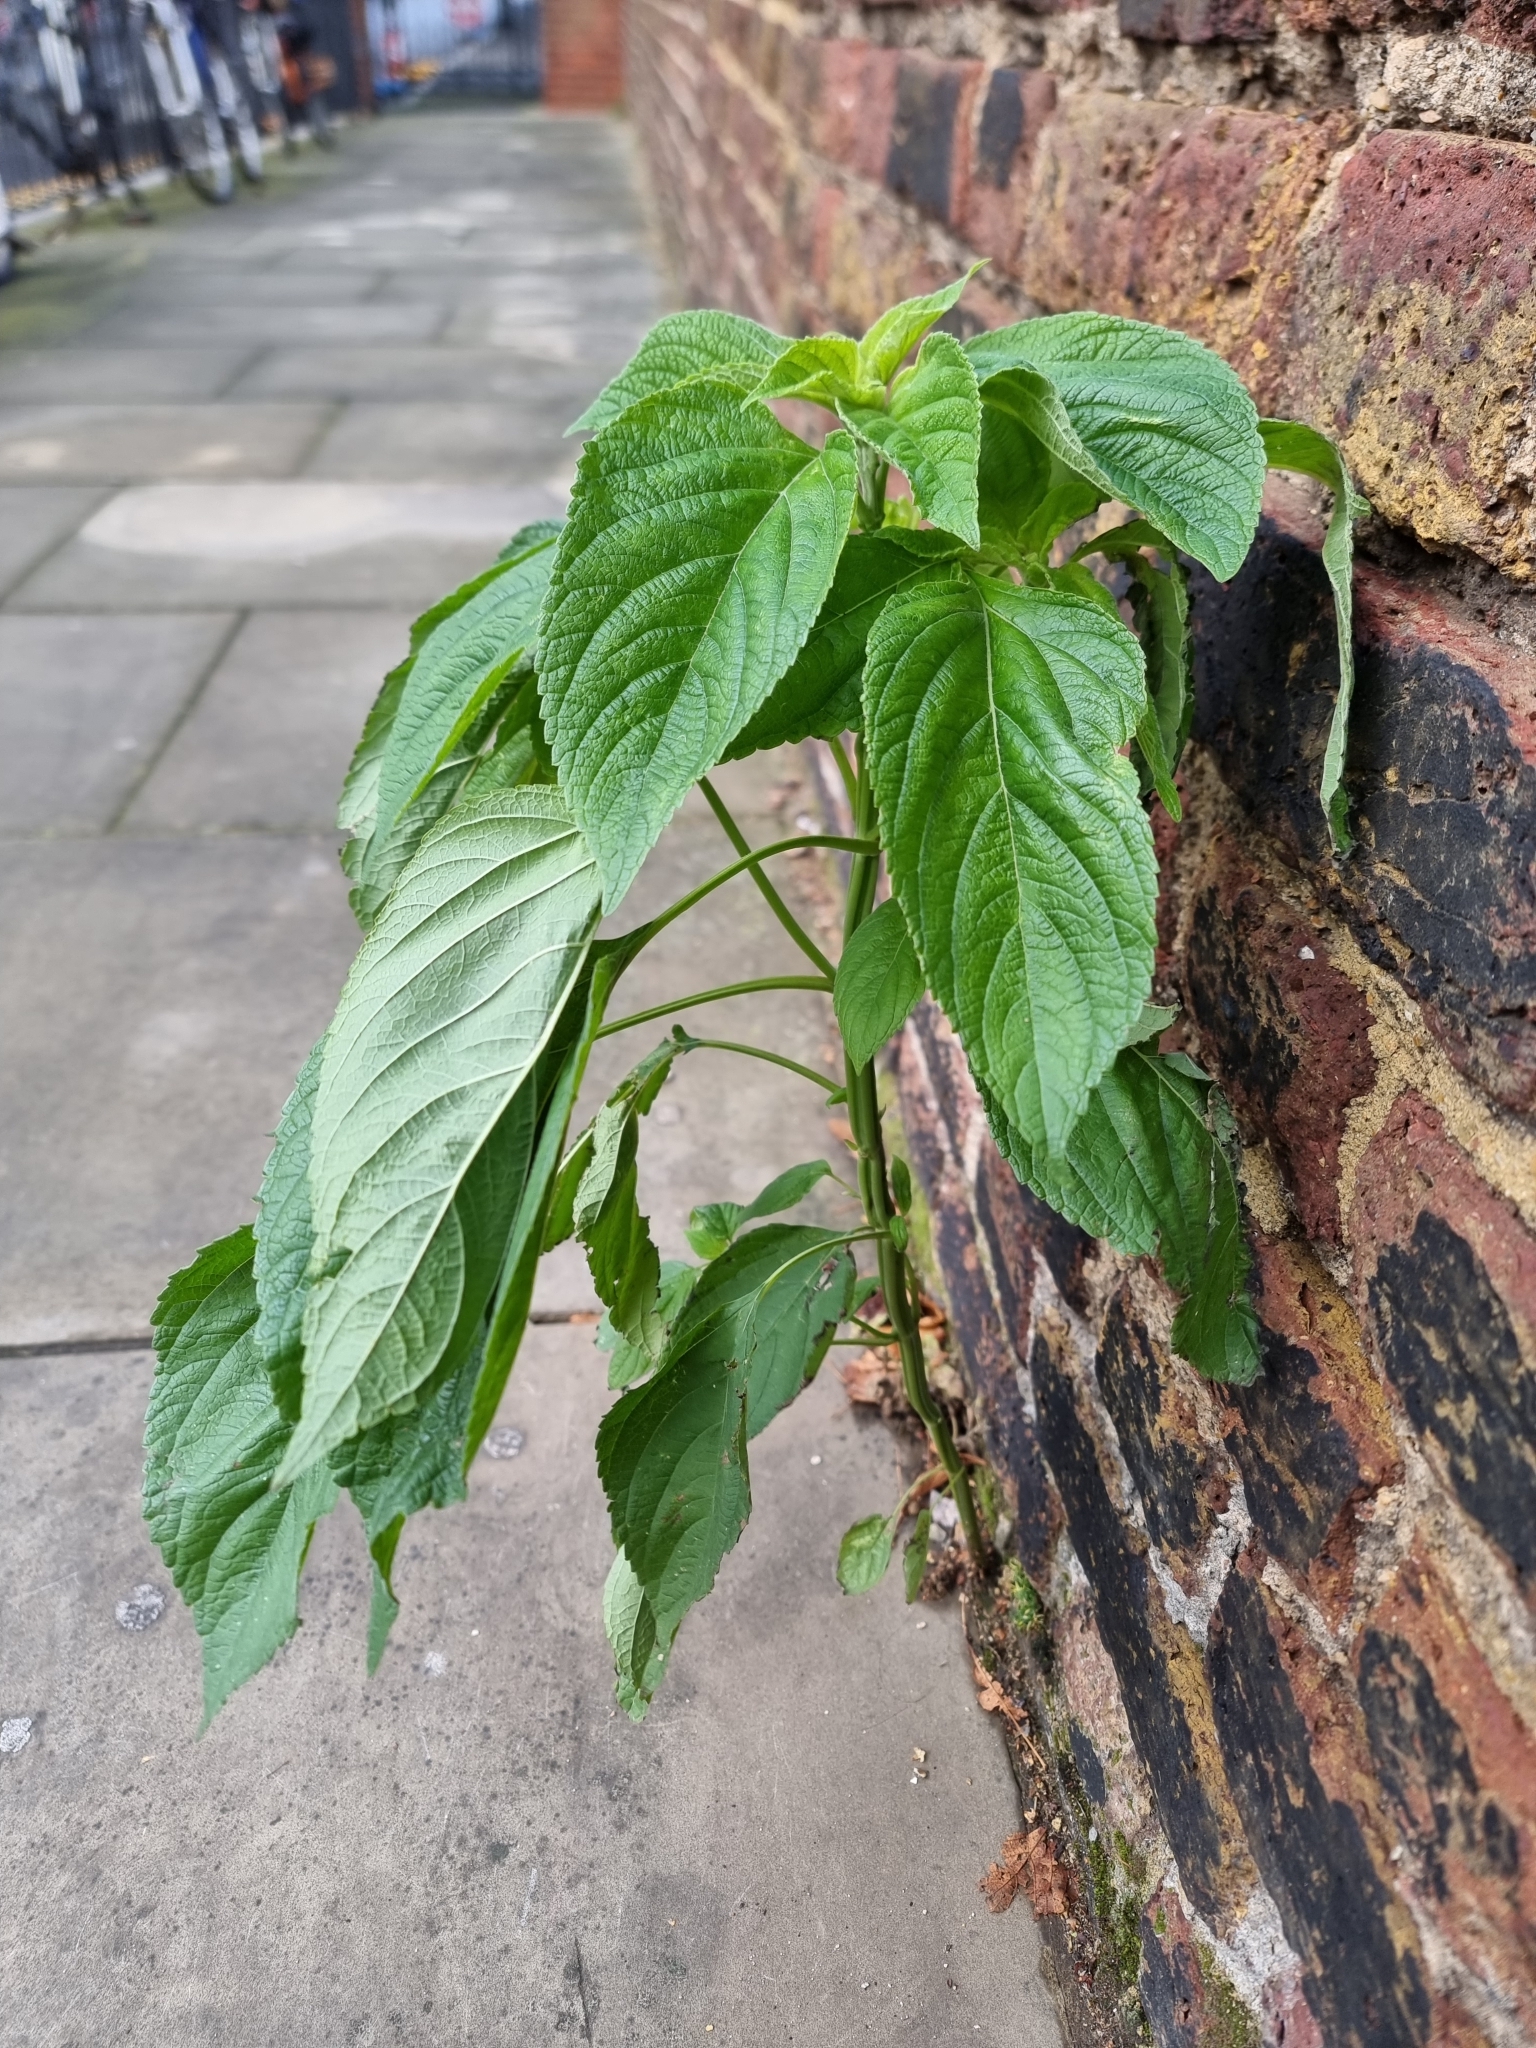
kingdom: Plantae
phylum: Tracheophyta
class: Magnoliopsida
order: Lamiales
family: Lamiaceae
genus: Salvia
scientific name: Salvia hispanica
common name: Chia
